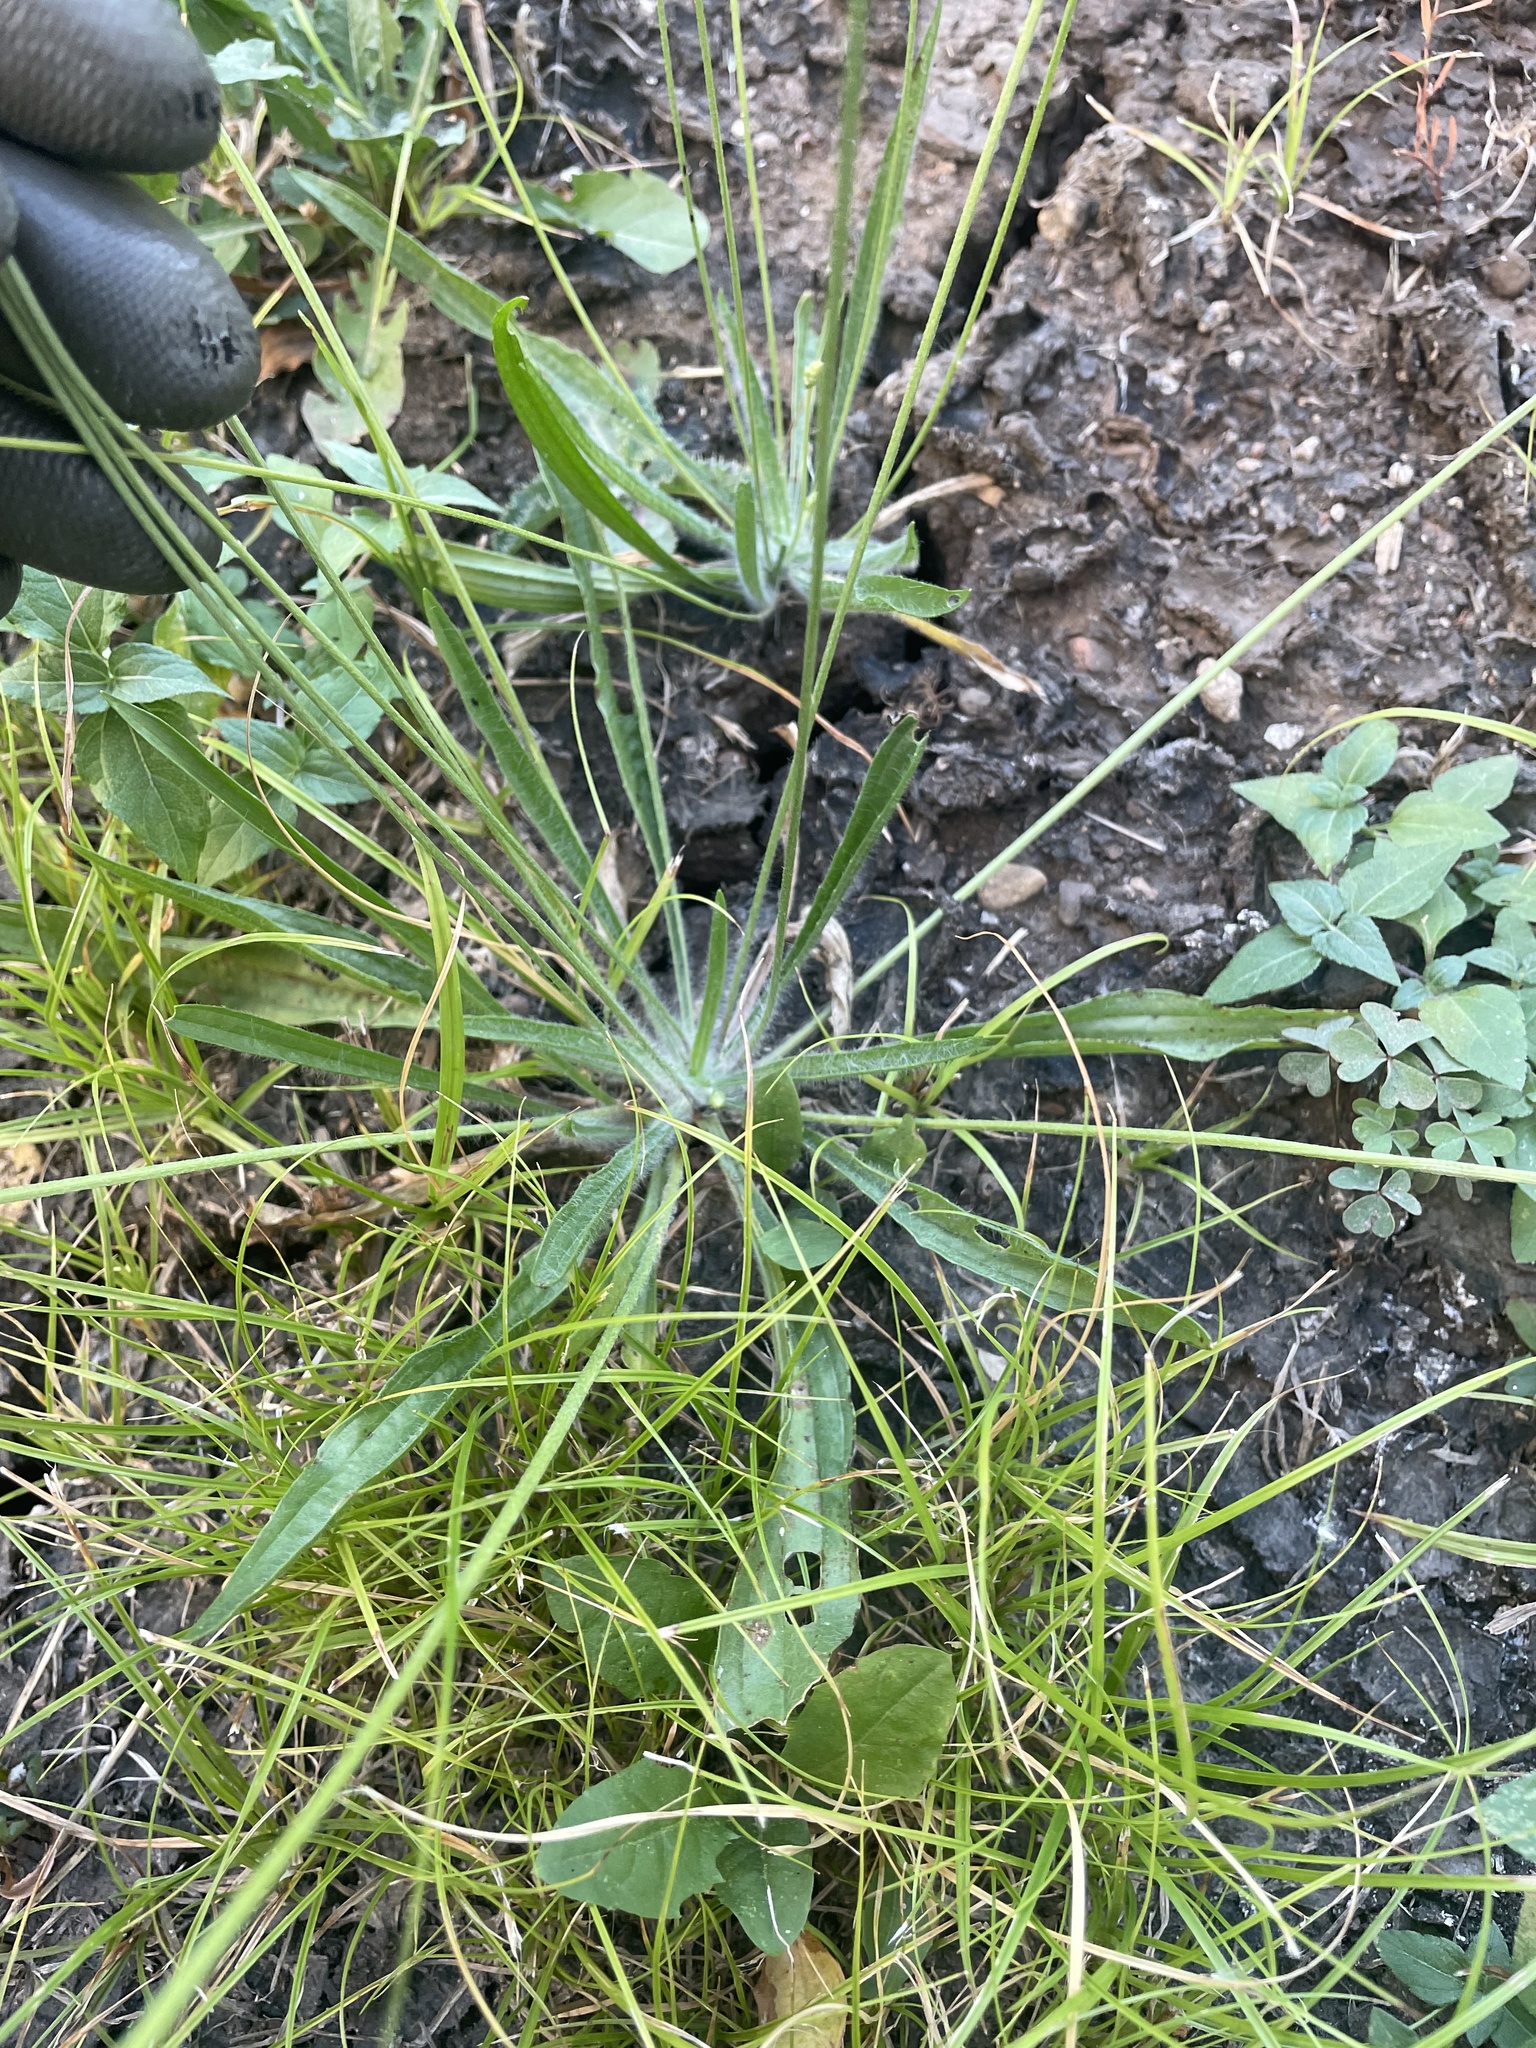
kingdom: Plantae
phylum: Tracheophyta
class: Magnoliopsida
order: Lamiales
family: Plantaginaceae
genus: Plantago
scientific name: Plantago lanceolata
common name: Ribwort plantain
